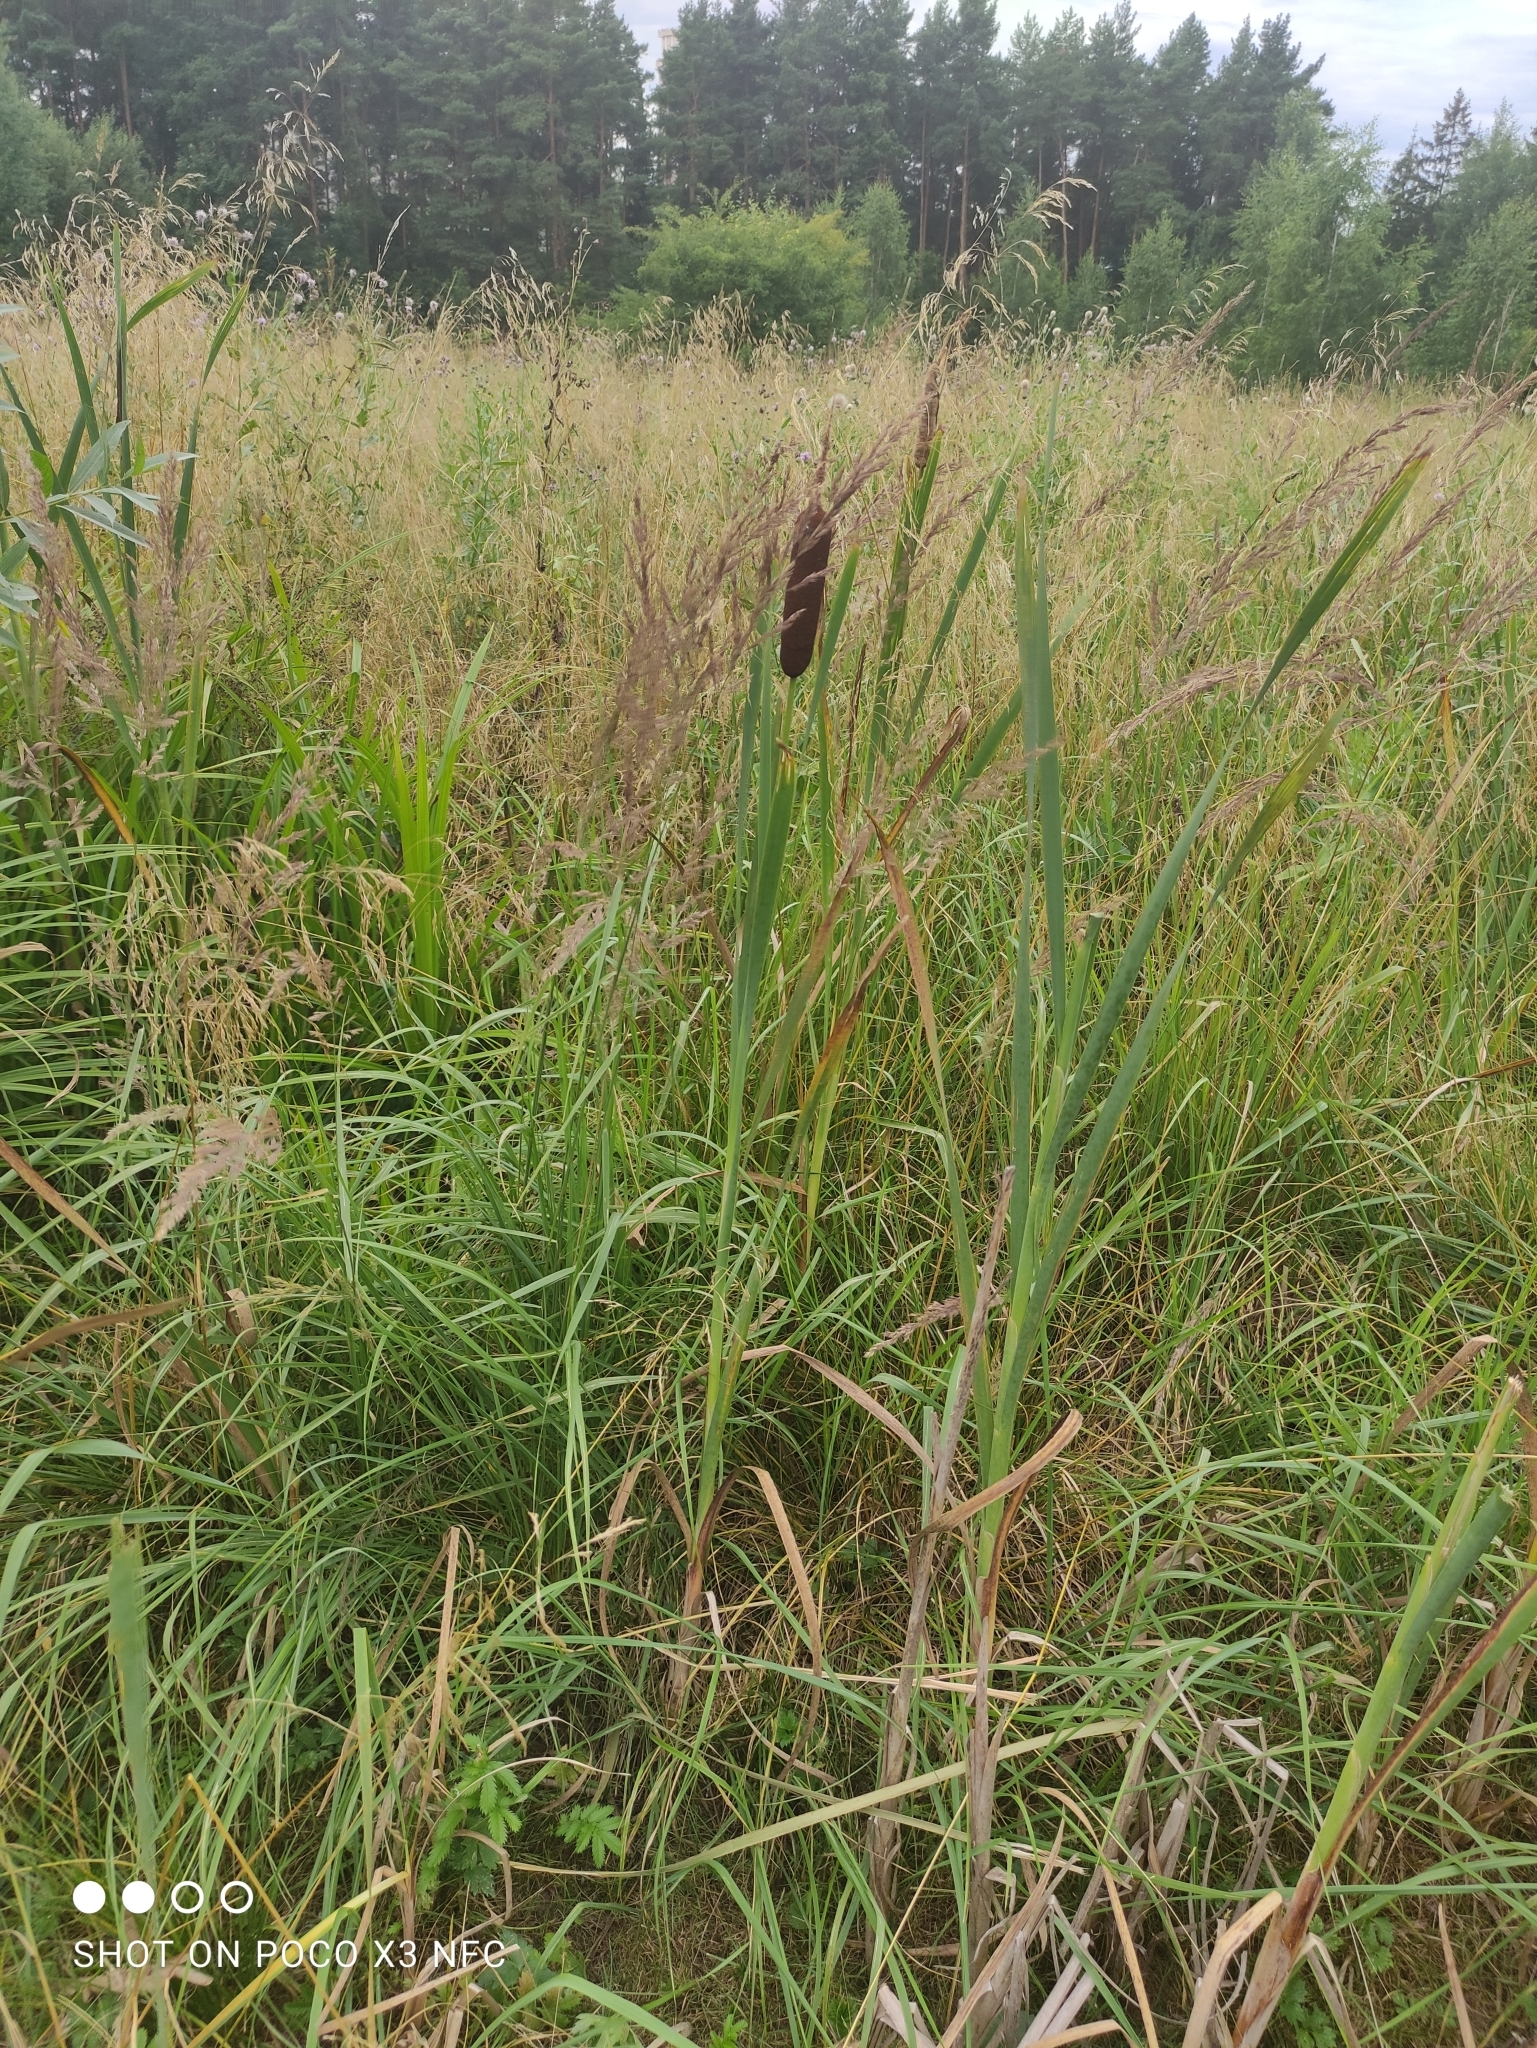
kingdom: Plantae
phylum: Tracheophyta
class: Liliopsida
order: Poales
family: Typhaceae
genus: Typha
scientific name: Typha latifolia
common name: Broadleaf cattail
